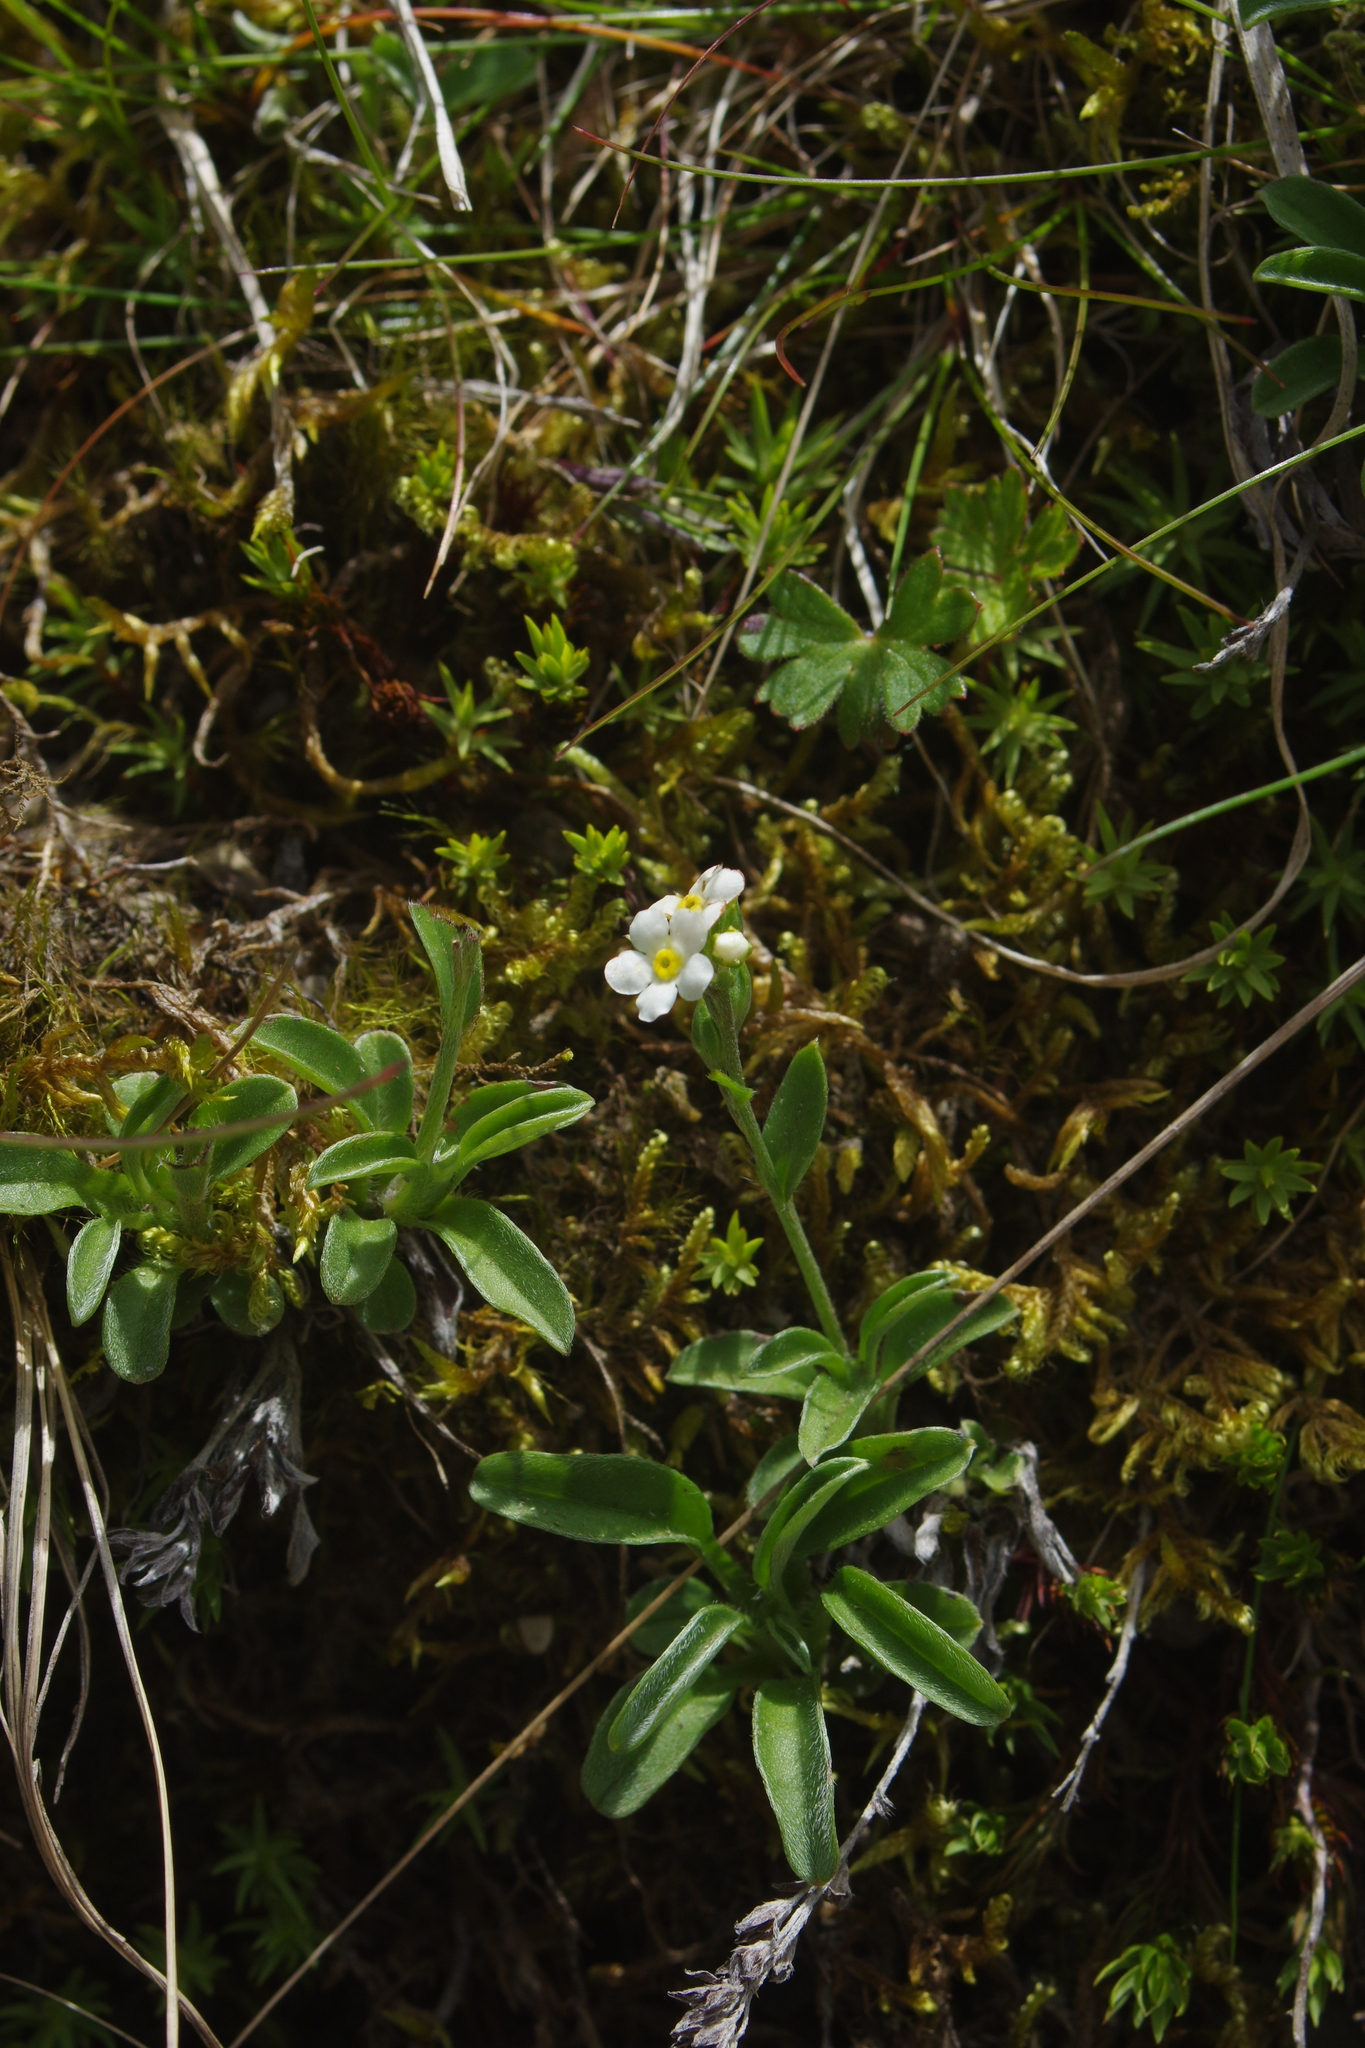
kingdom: Plantae
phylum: Tracheophyta
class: Magnoliopsida
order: Boraginales
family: Boraginaceae
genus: Trigonotis
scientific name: Trigonotis nankotaizanensis
